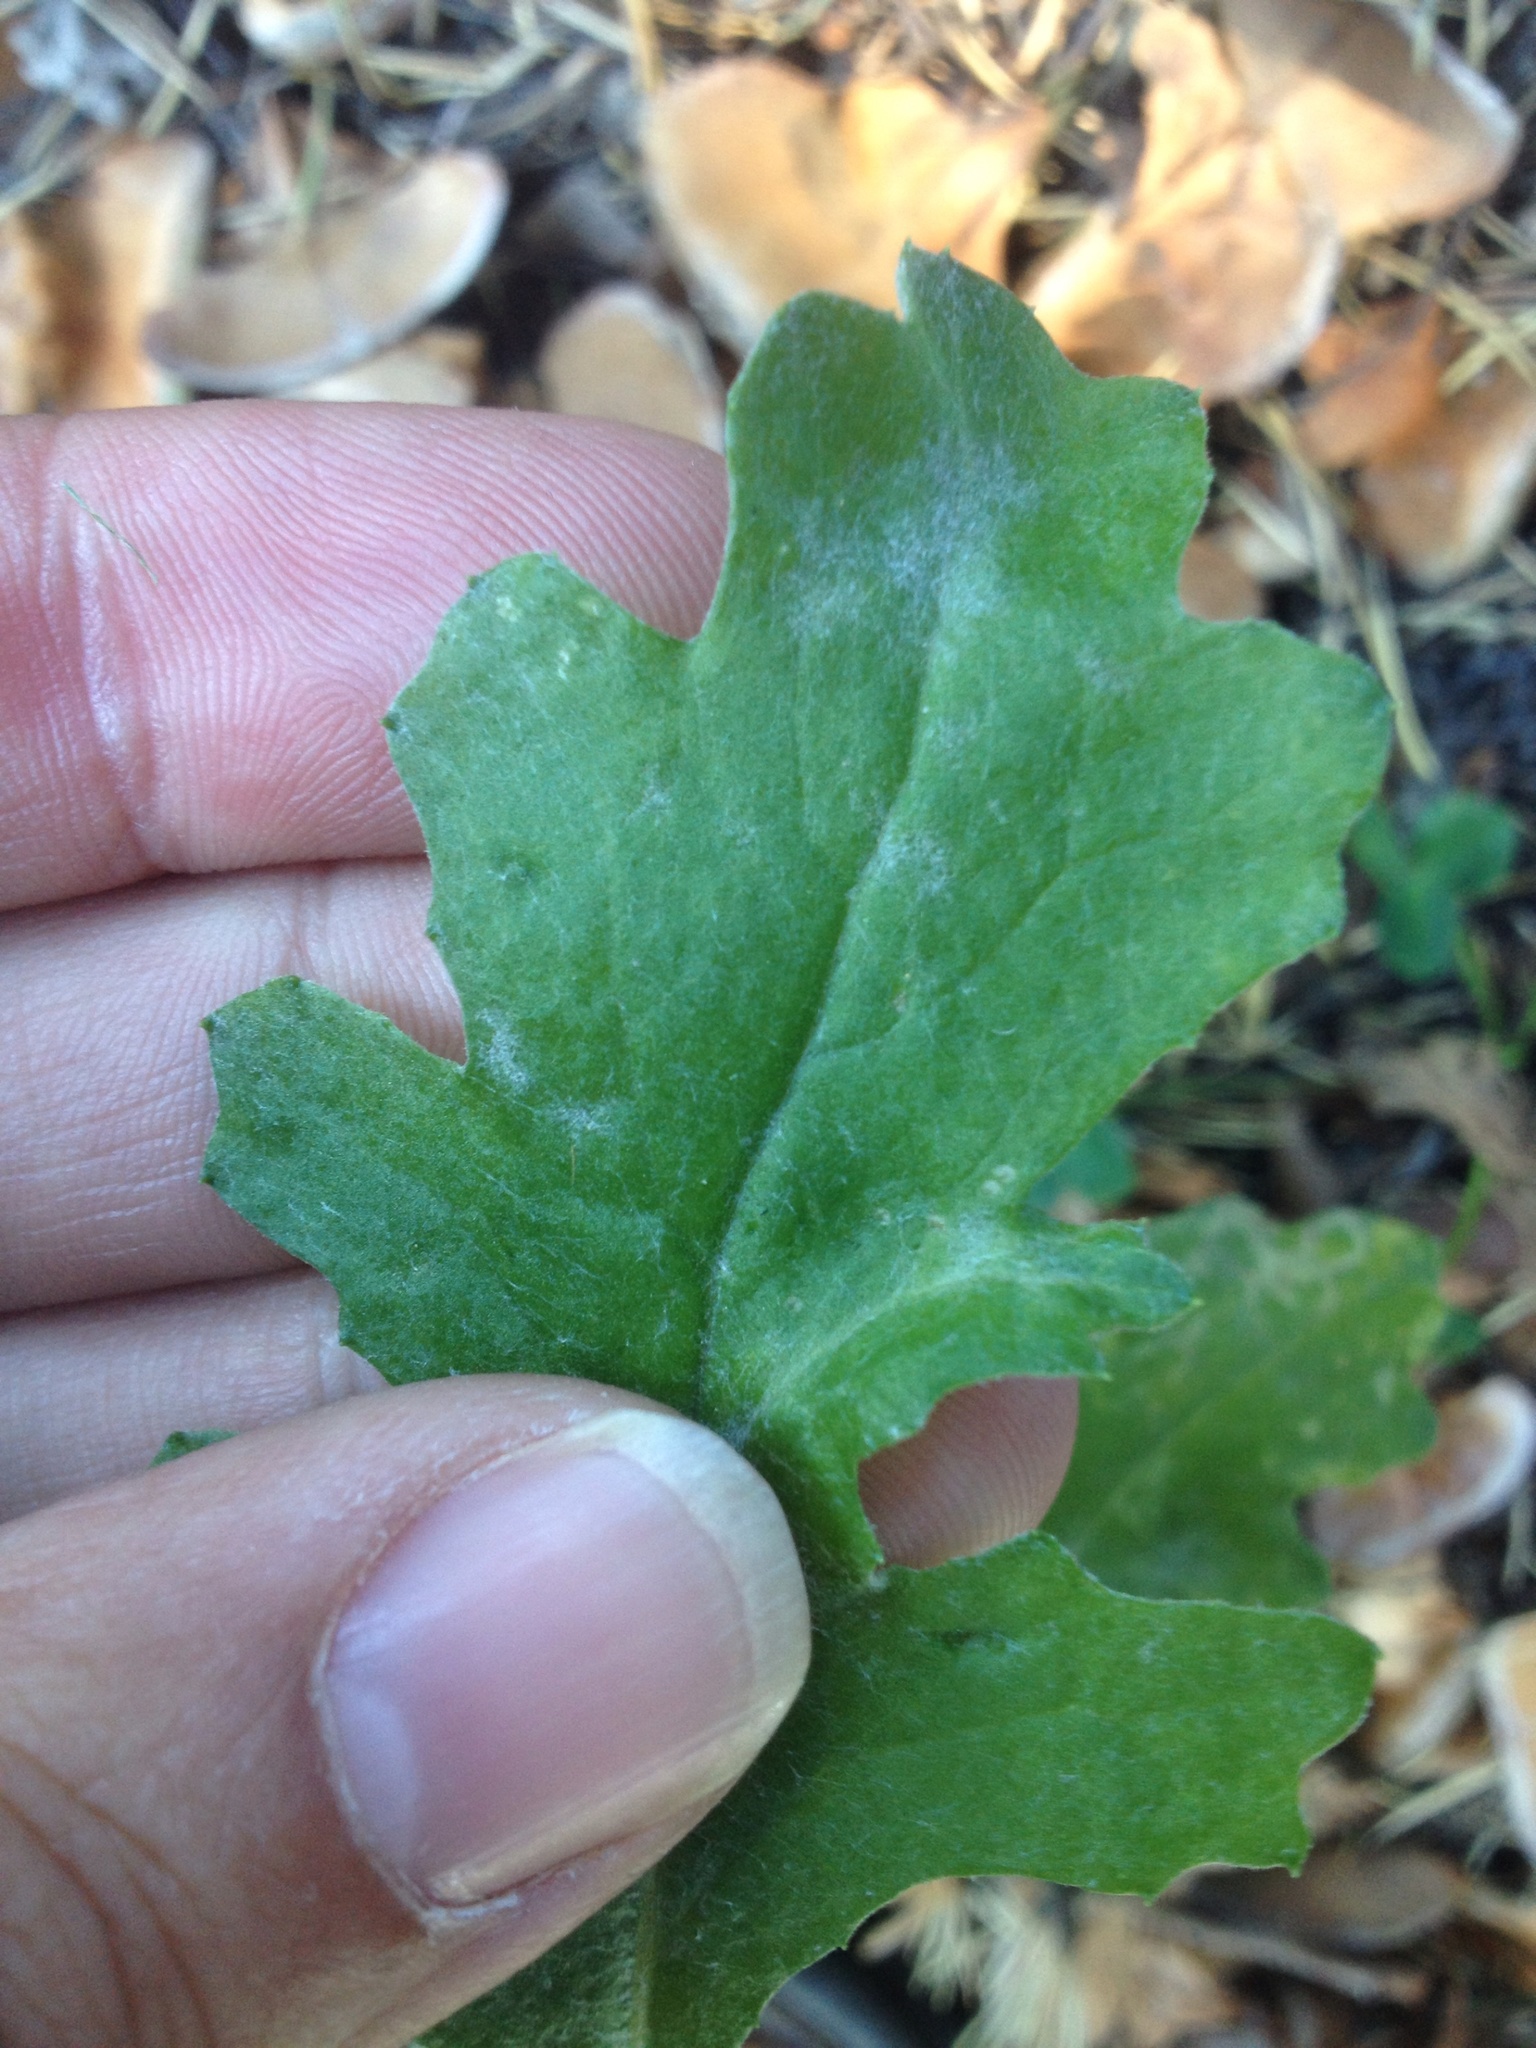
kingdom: Plantae
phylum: Tracheophyta
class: Magnoliopsida
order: Asterales
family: Asteraceae
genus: Senecio
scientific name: Senecio glomeratus
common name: Cutleaf burnweed
